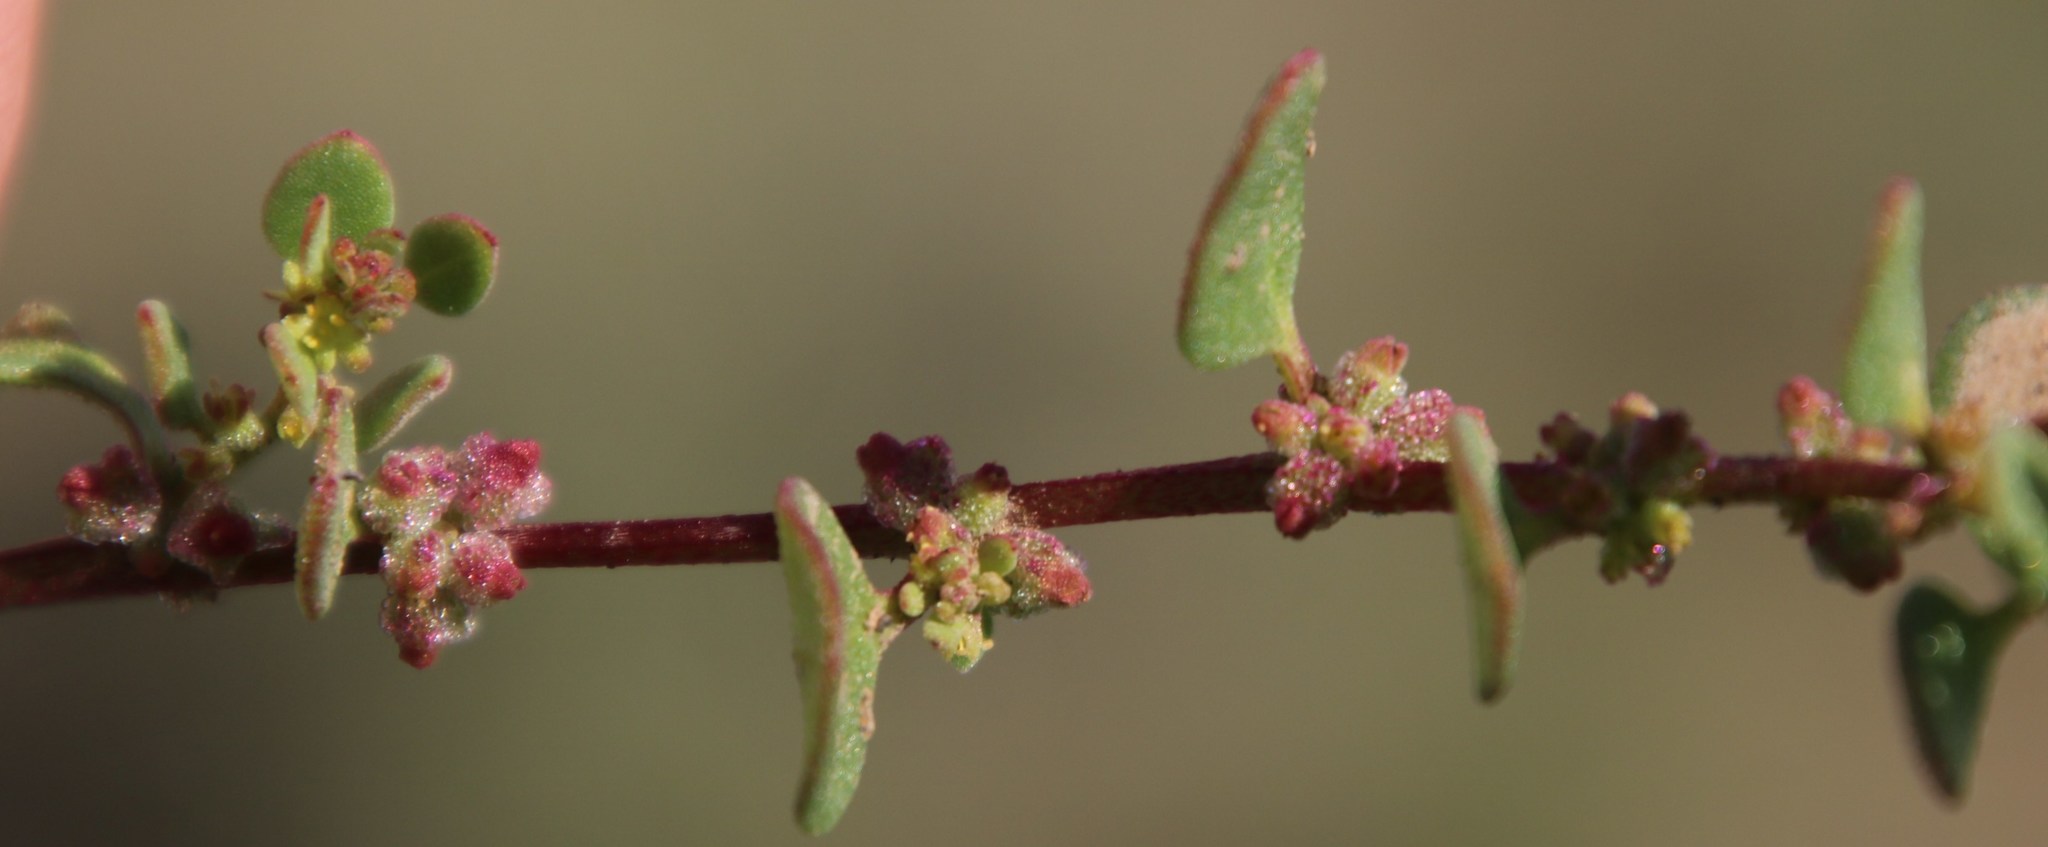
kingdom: Plantae
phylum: Tracheophyta
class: Magnoliopsida
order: Caryophyllales
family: Aizoaceae
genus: Tetragonia
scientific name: Tetragonia echinata
